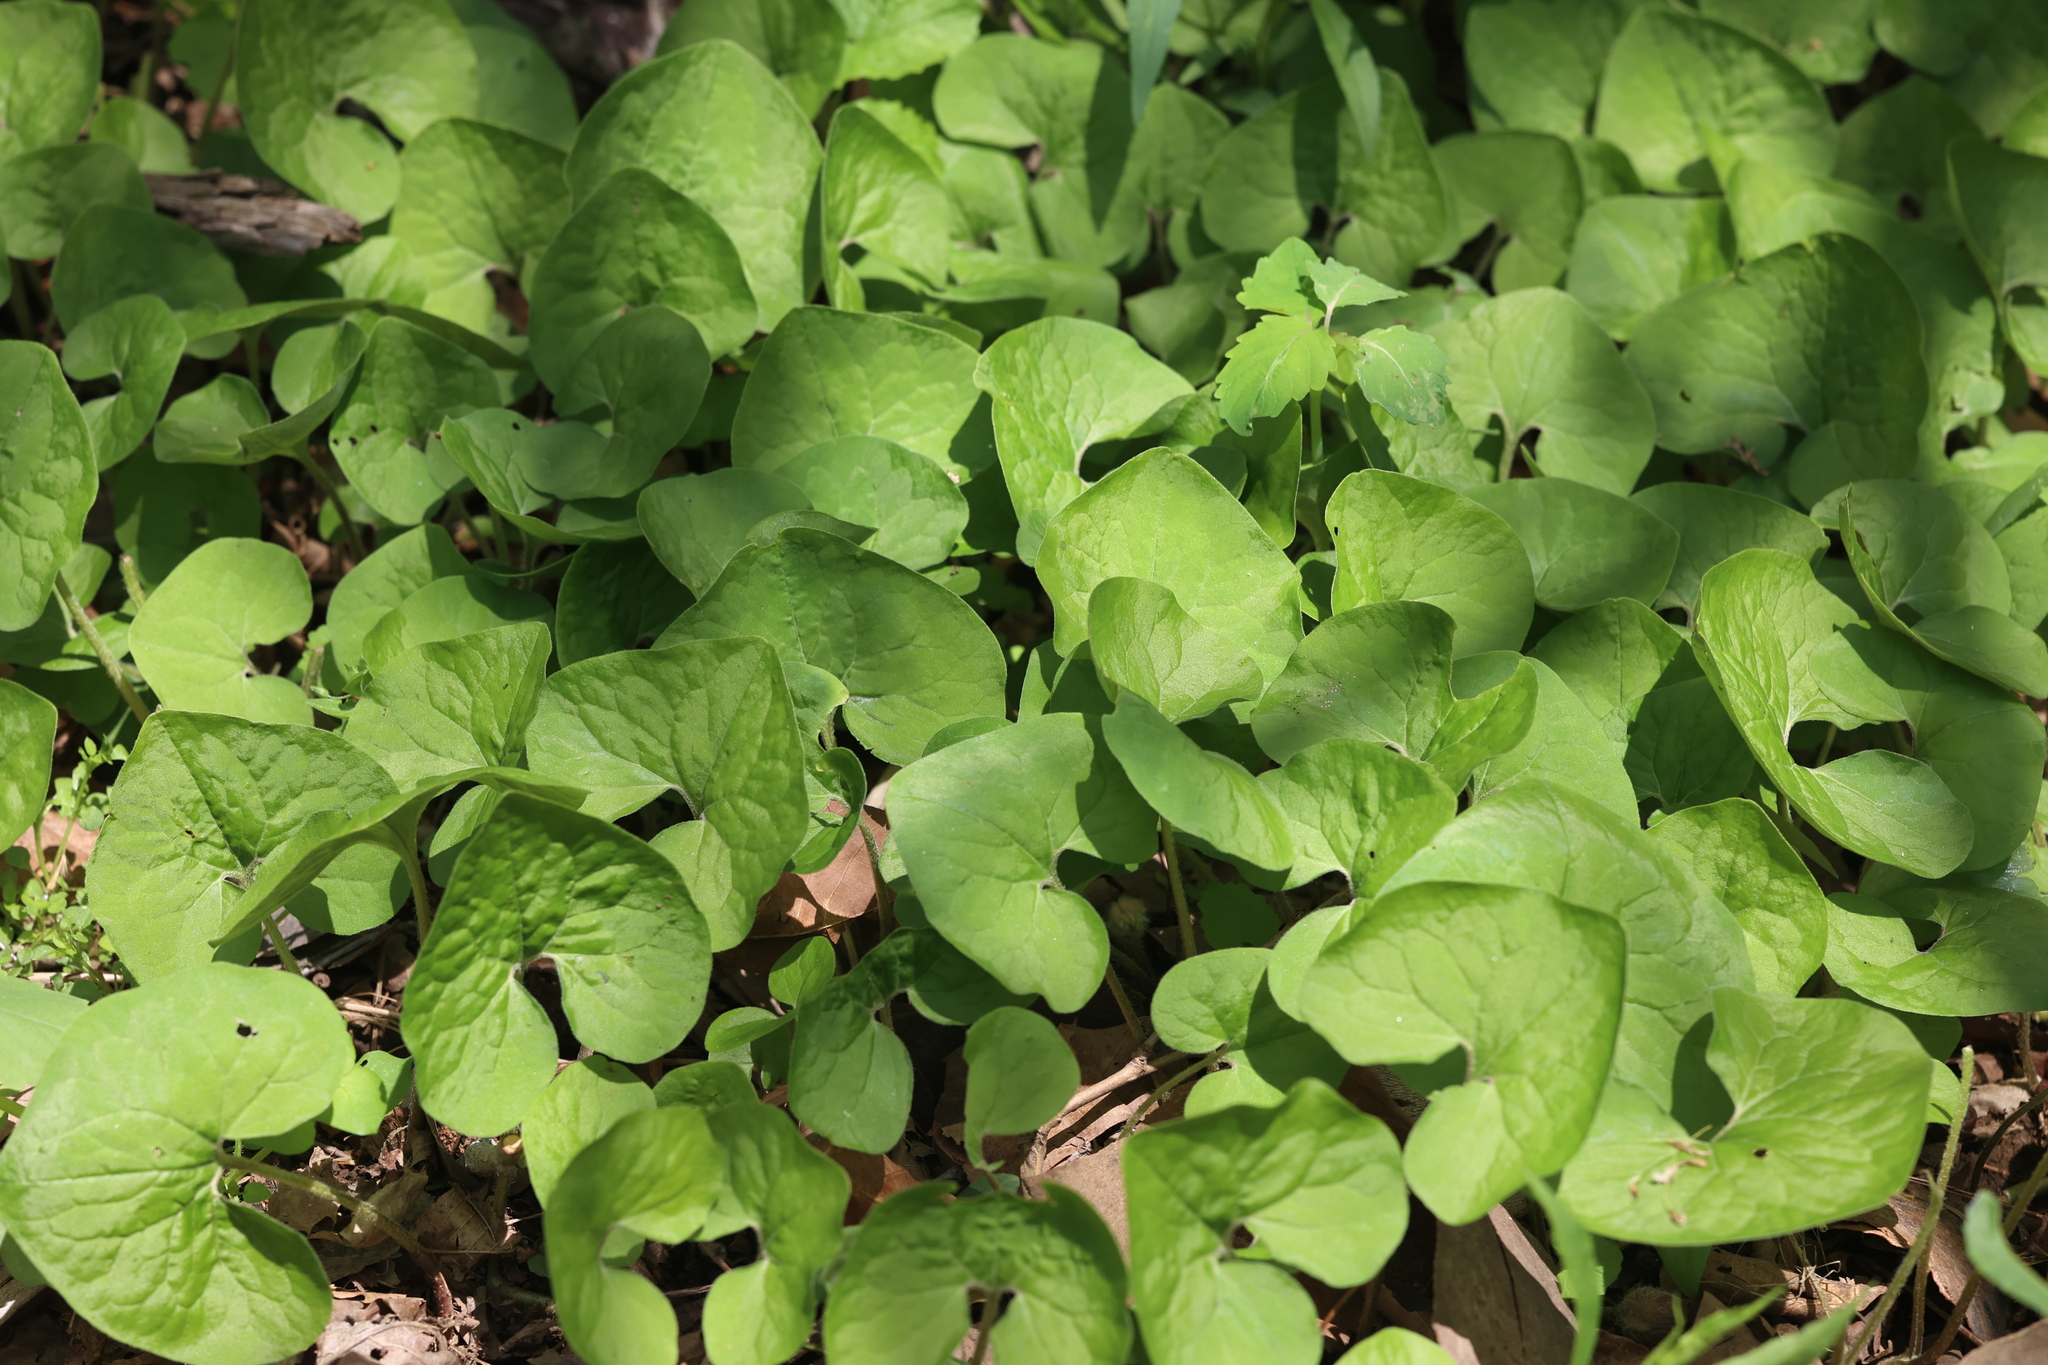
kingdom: Plantae
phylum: Tracheophyta
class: Magnoliopsida
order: Piperales
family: Aristolochiaceae
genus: Asarum
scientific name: Asarum canadense
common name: Wild ginger
